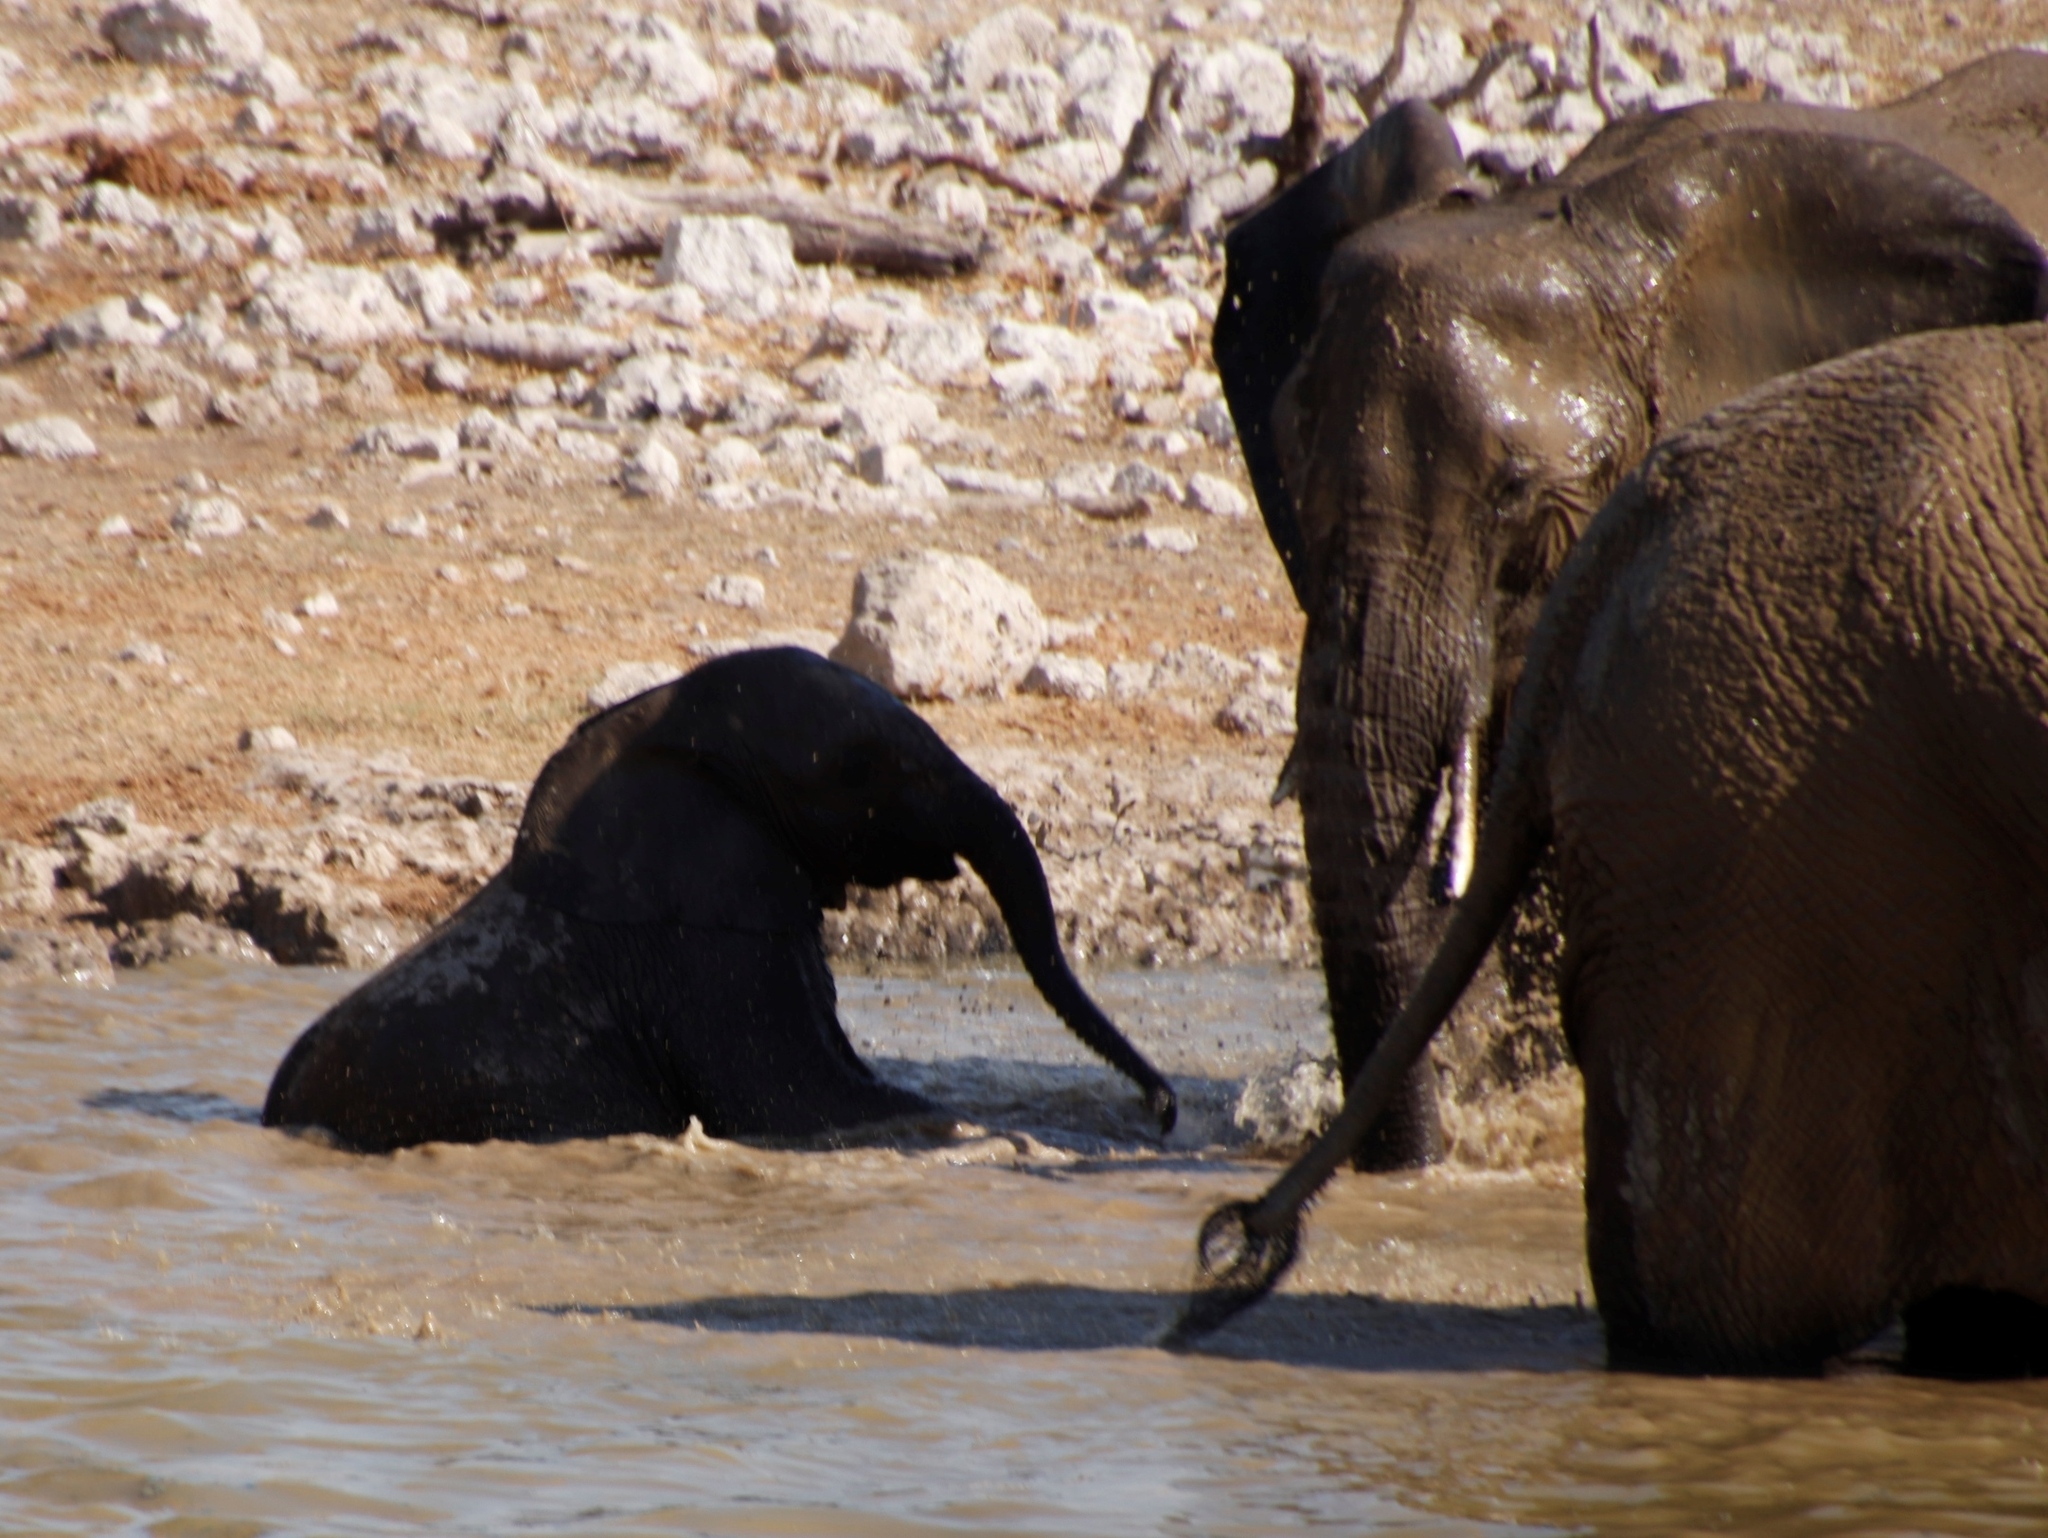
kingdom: Animalia
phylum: Chordata
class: Mammalia
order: Proboscidea
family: Elephantidae
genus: Loxodonta
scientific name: Loxodonta africana
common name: African elephant
